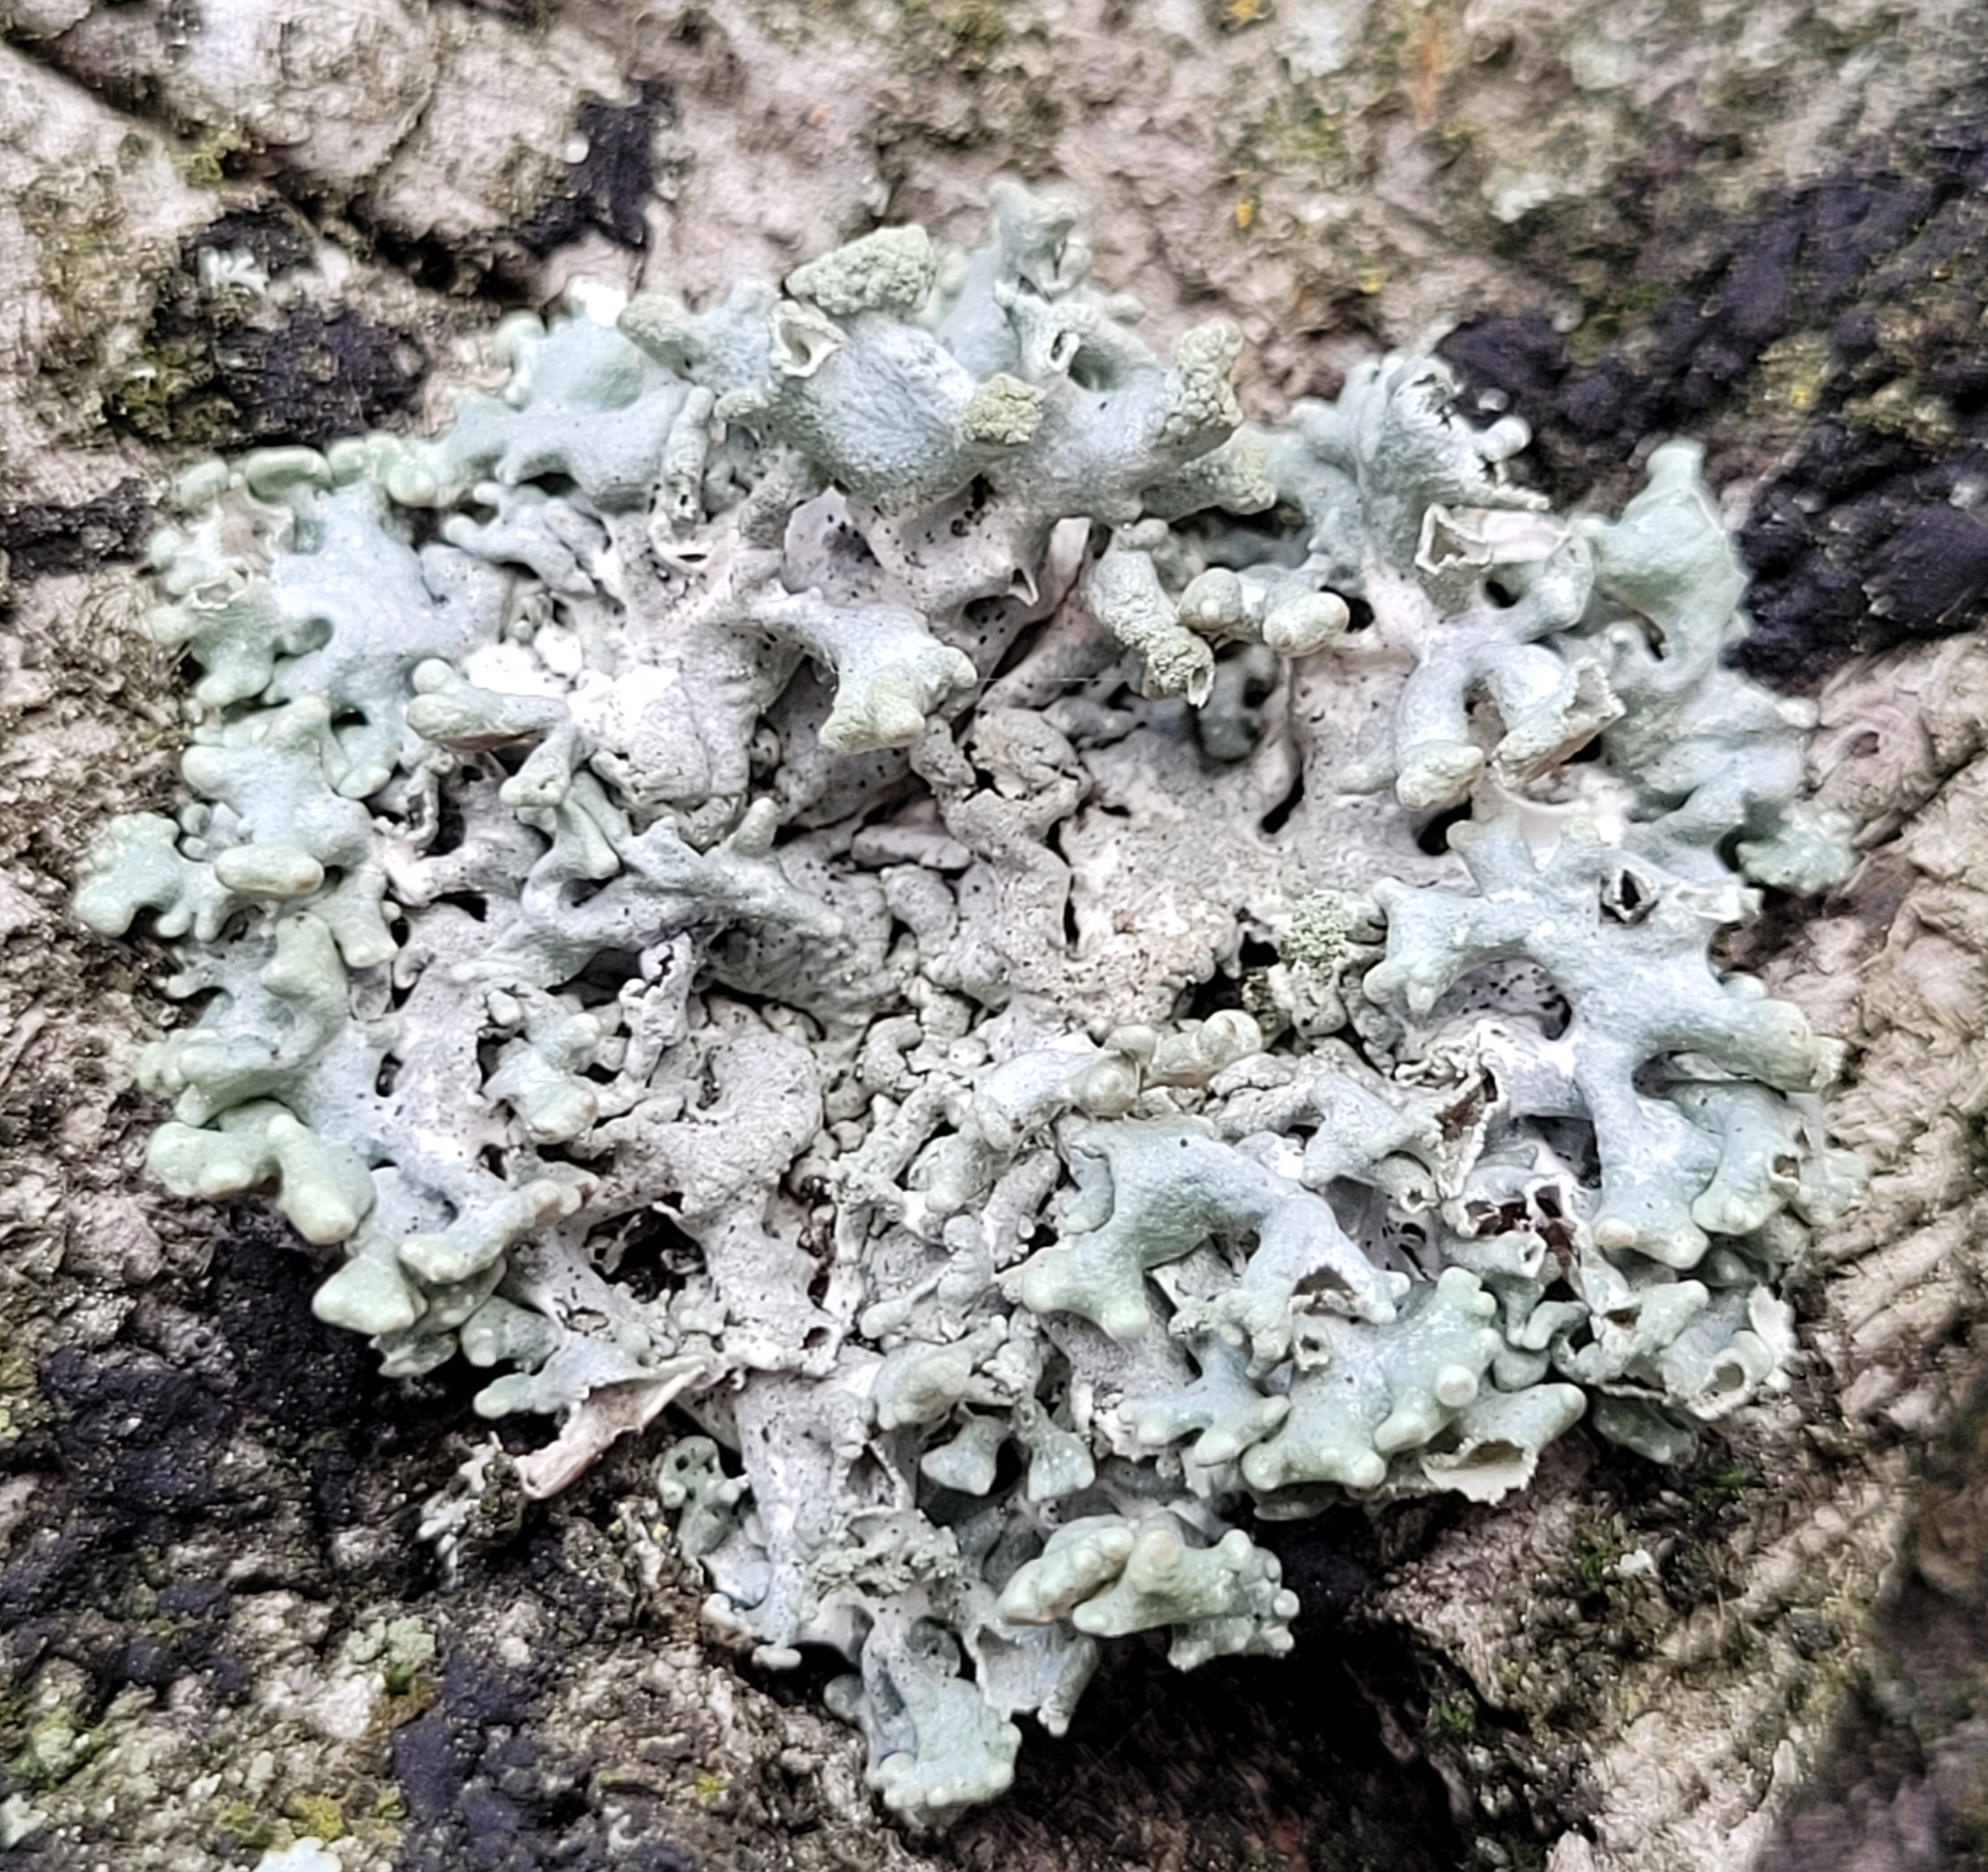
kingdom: Fungi
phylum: Ascomycota
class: Lecanoromycetes
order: Lecanorales
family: Parmeliaceae
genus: Hypogymnia
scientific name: Hypogymnia tubulosa
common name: Powder-headed tube lichen
